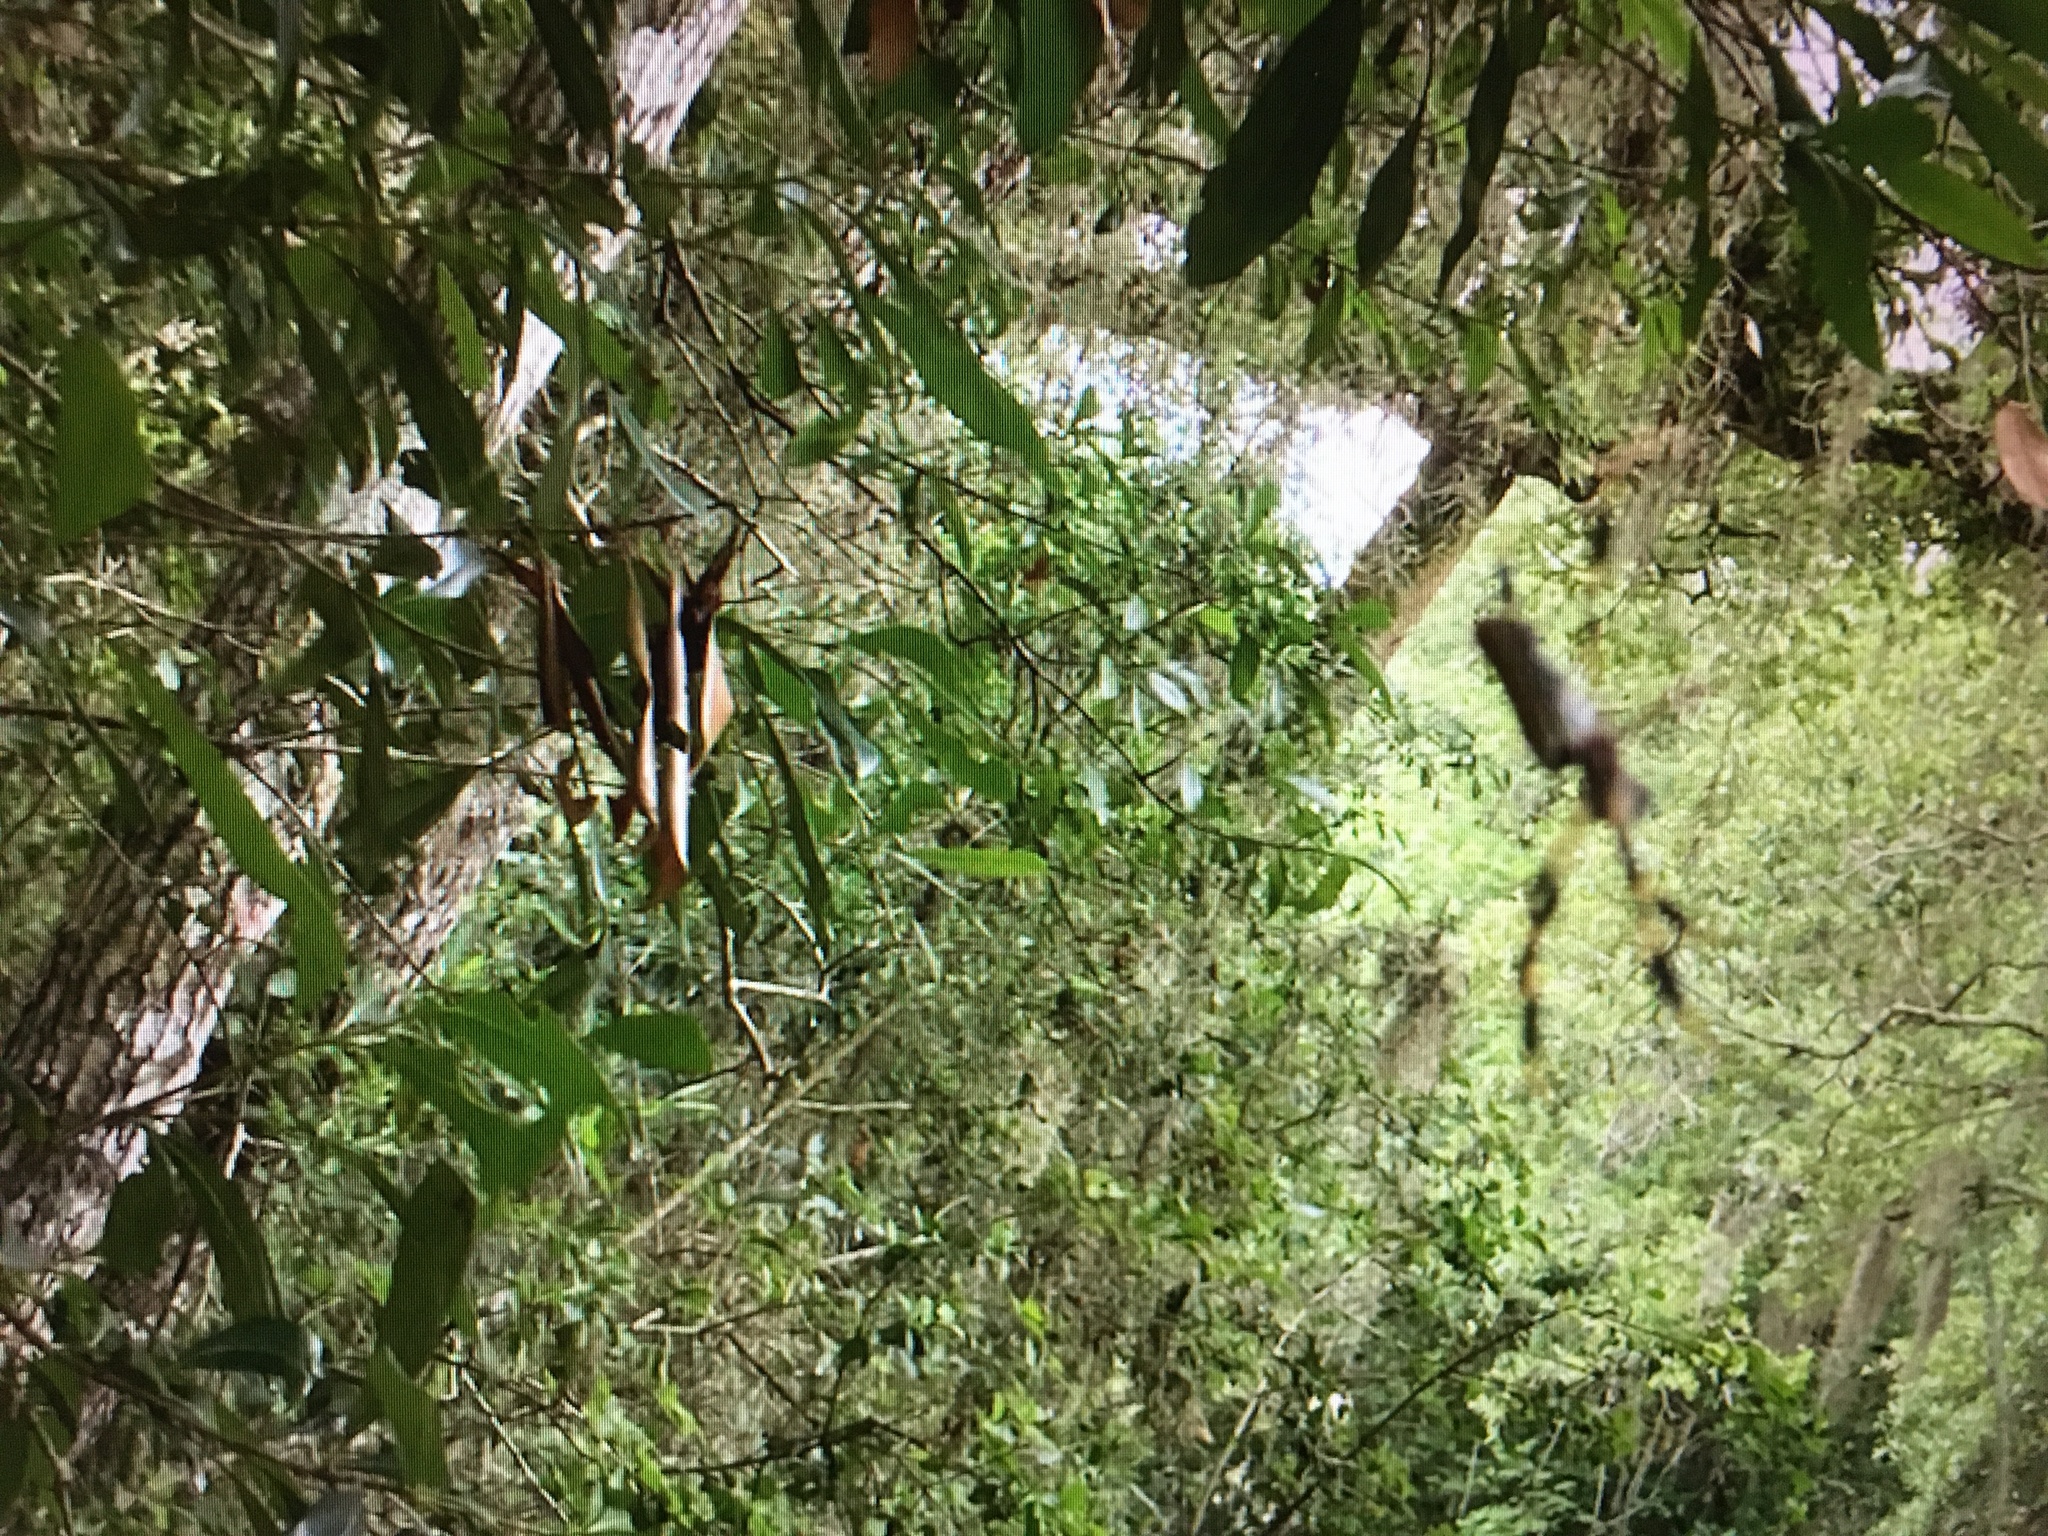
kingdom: Animalia
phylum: Arthropoda
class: Arachnida
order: Araneae
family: Araneidae
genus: Trichonephila
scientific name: Trichonephila clavipes
